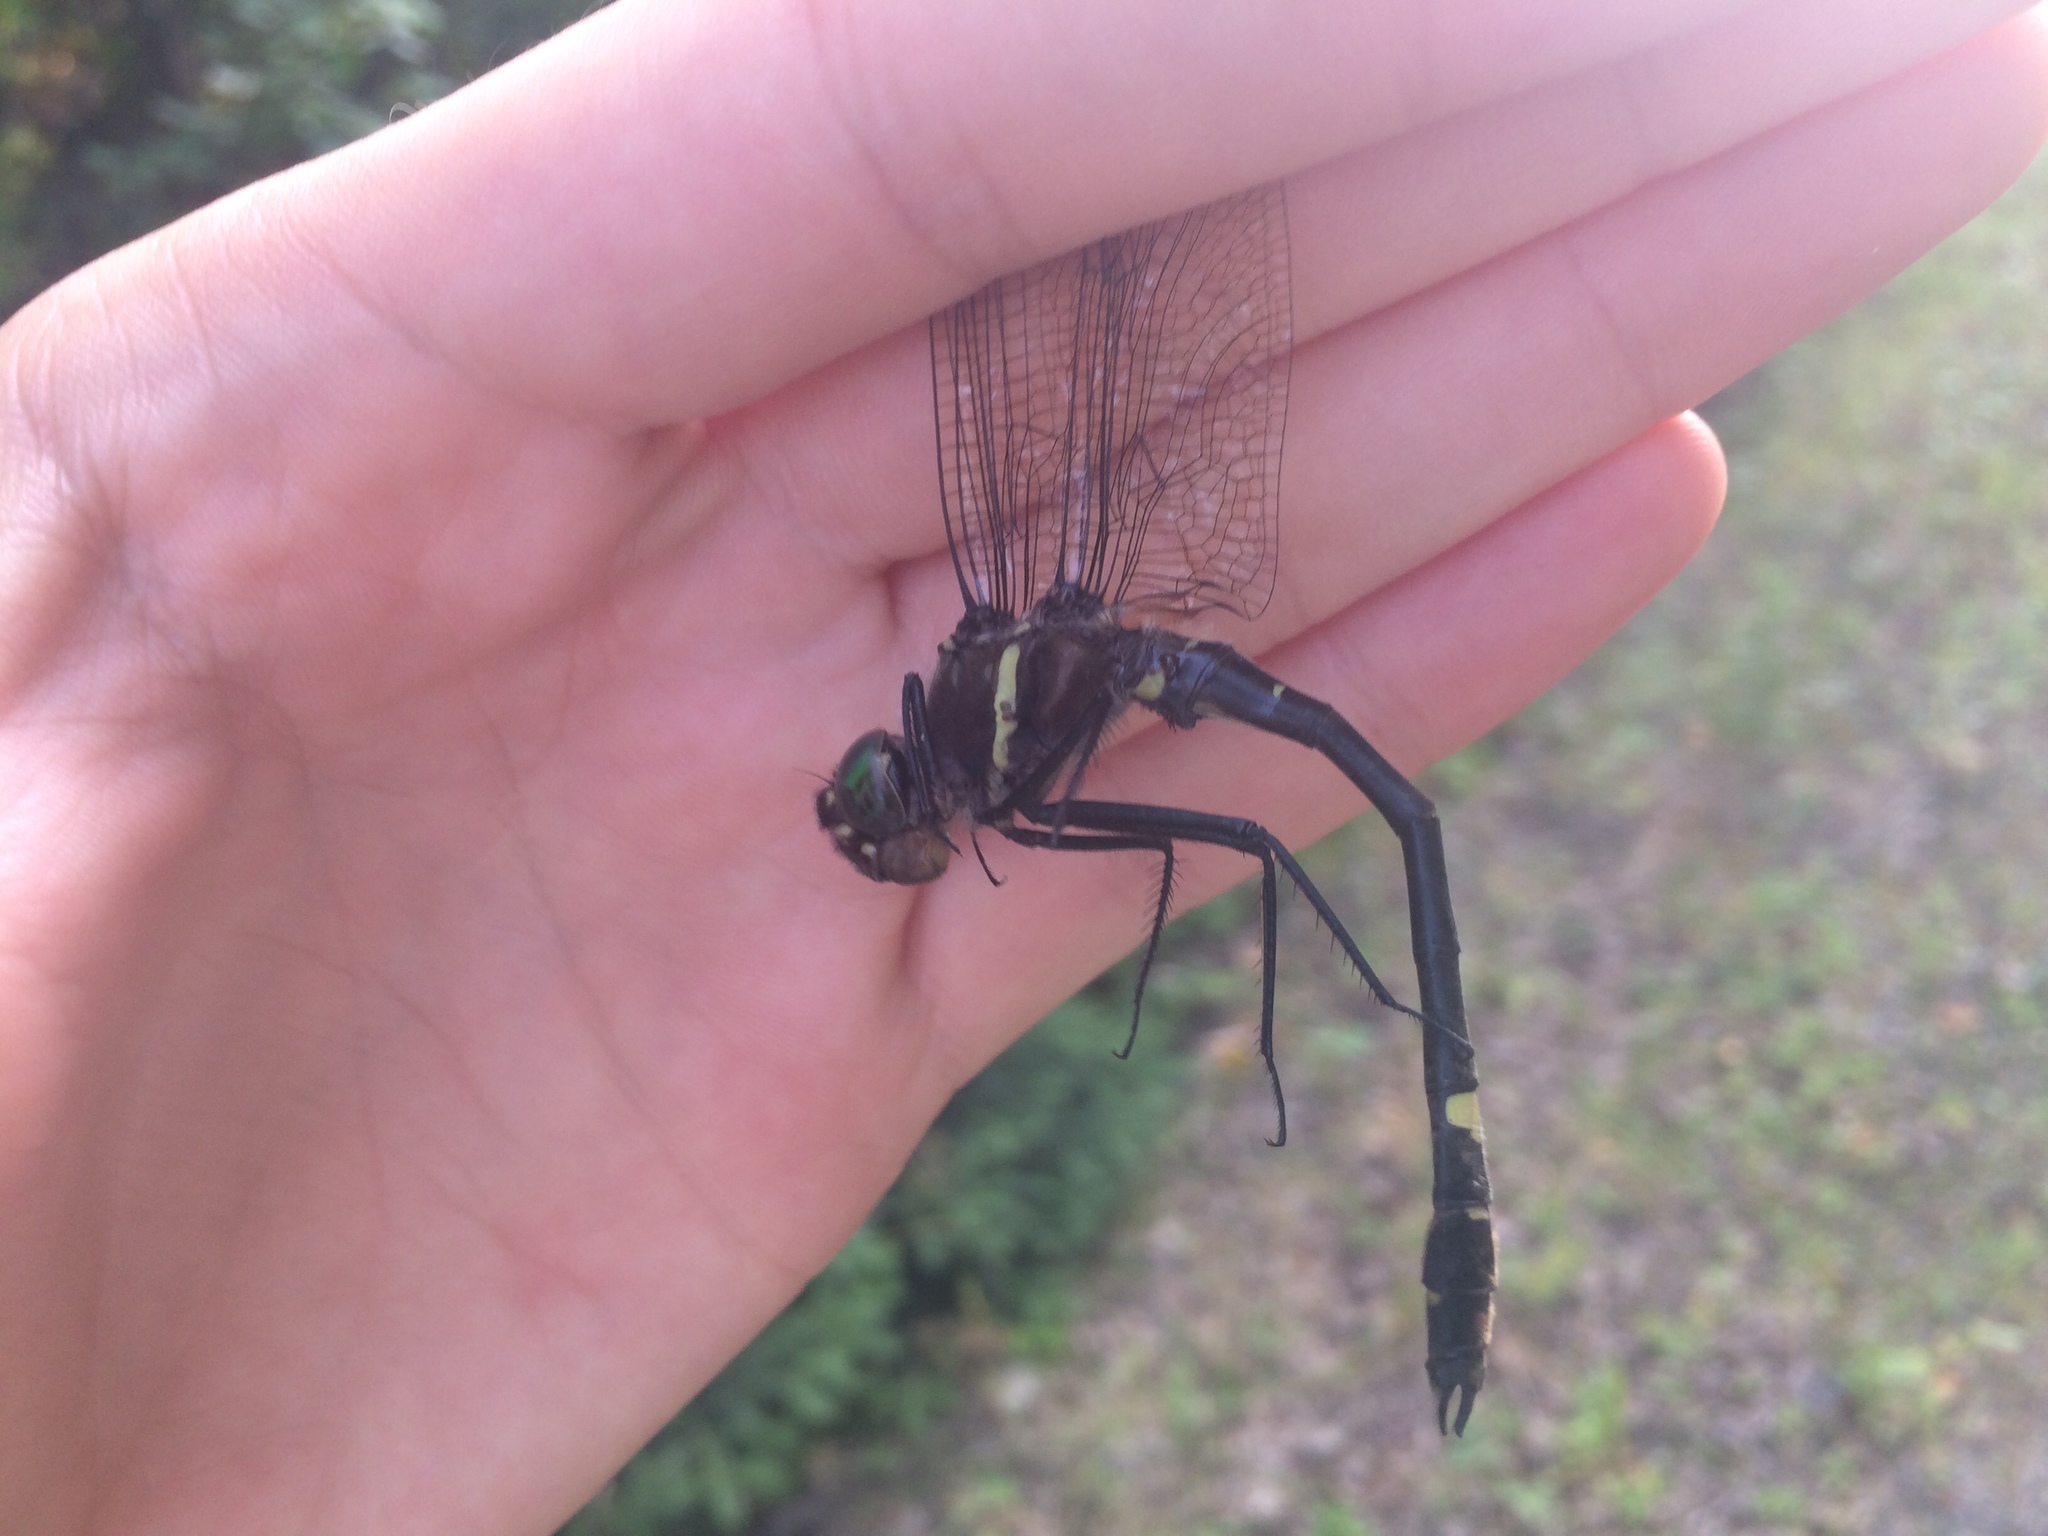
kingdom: Animalia
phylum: Arthropoda
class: Insecta
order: Odonata
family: Macromiidae
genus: Macromia
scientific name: Macromia illinoiensis
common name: Swift river cruiser
